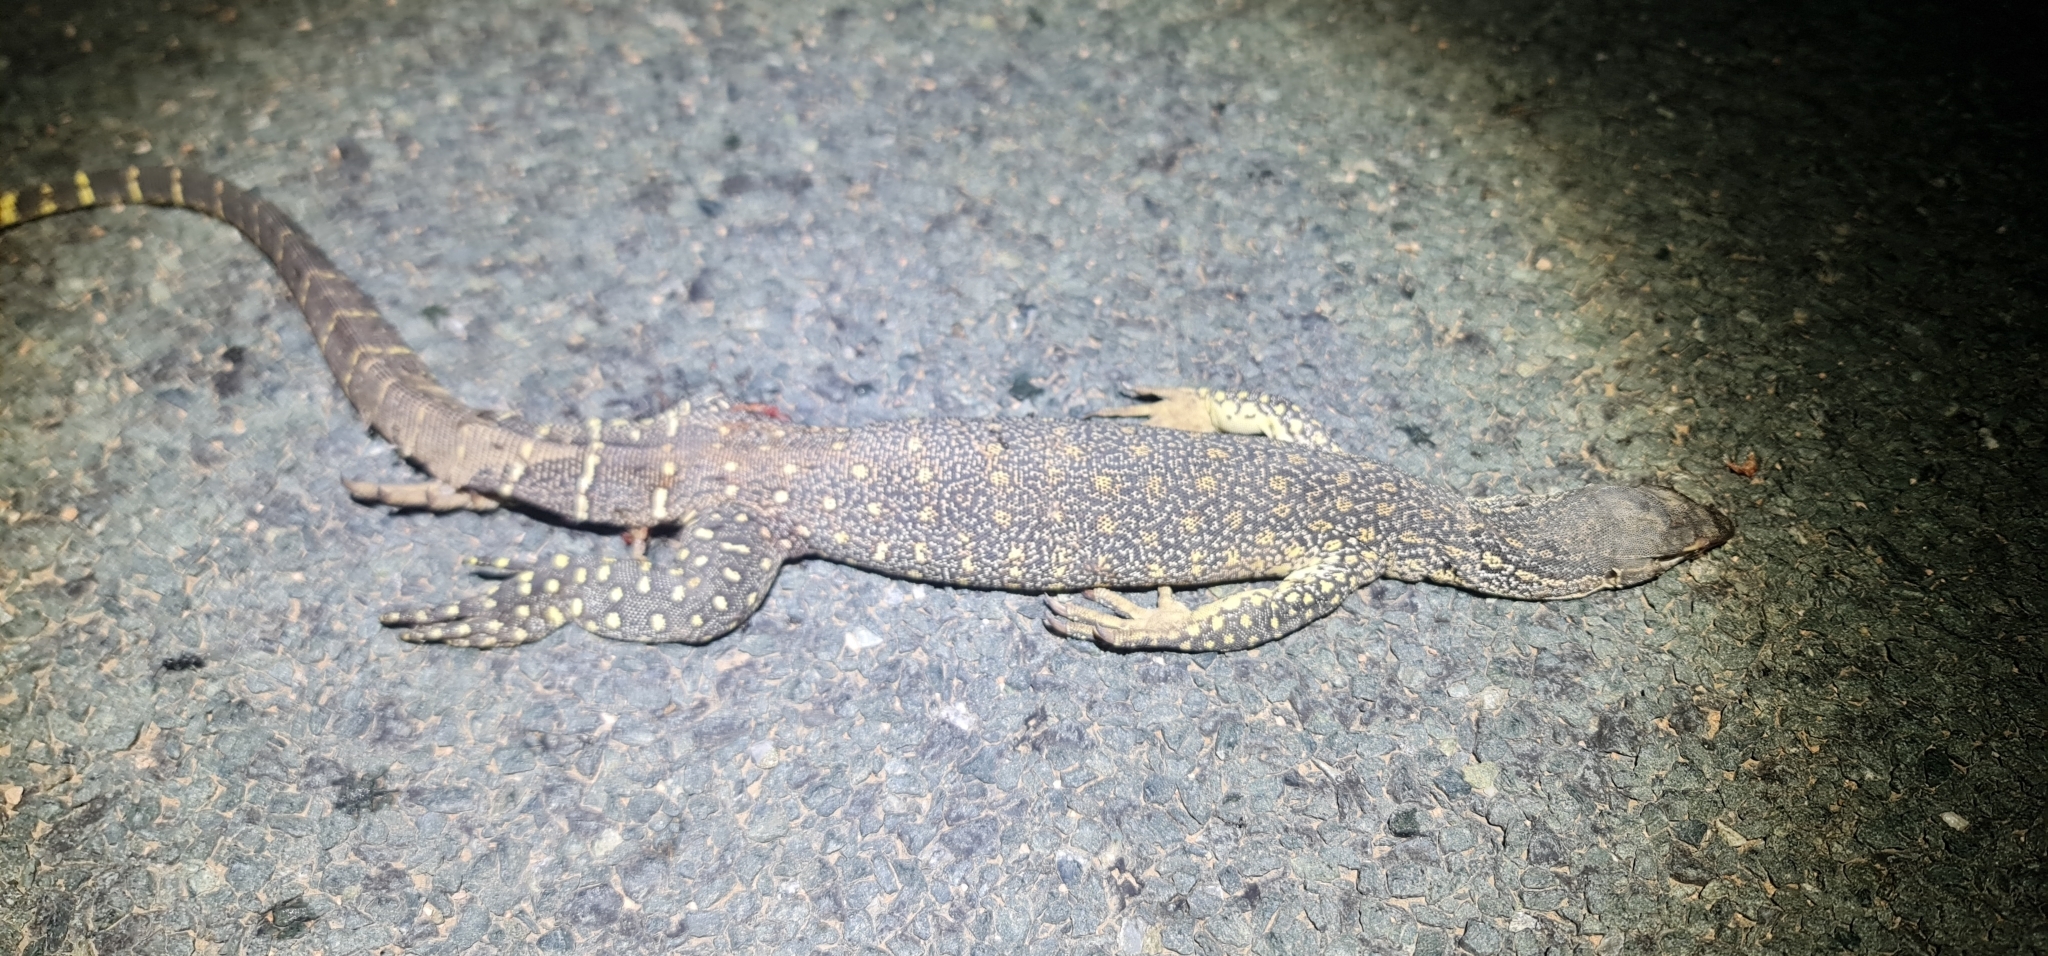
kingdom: Animalia
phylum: Chordata
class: Squamata
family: Varanidae
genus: Varanus
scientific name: Varanus gouldii
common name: Gould's goanna
